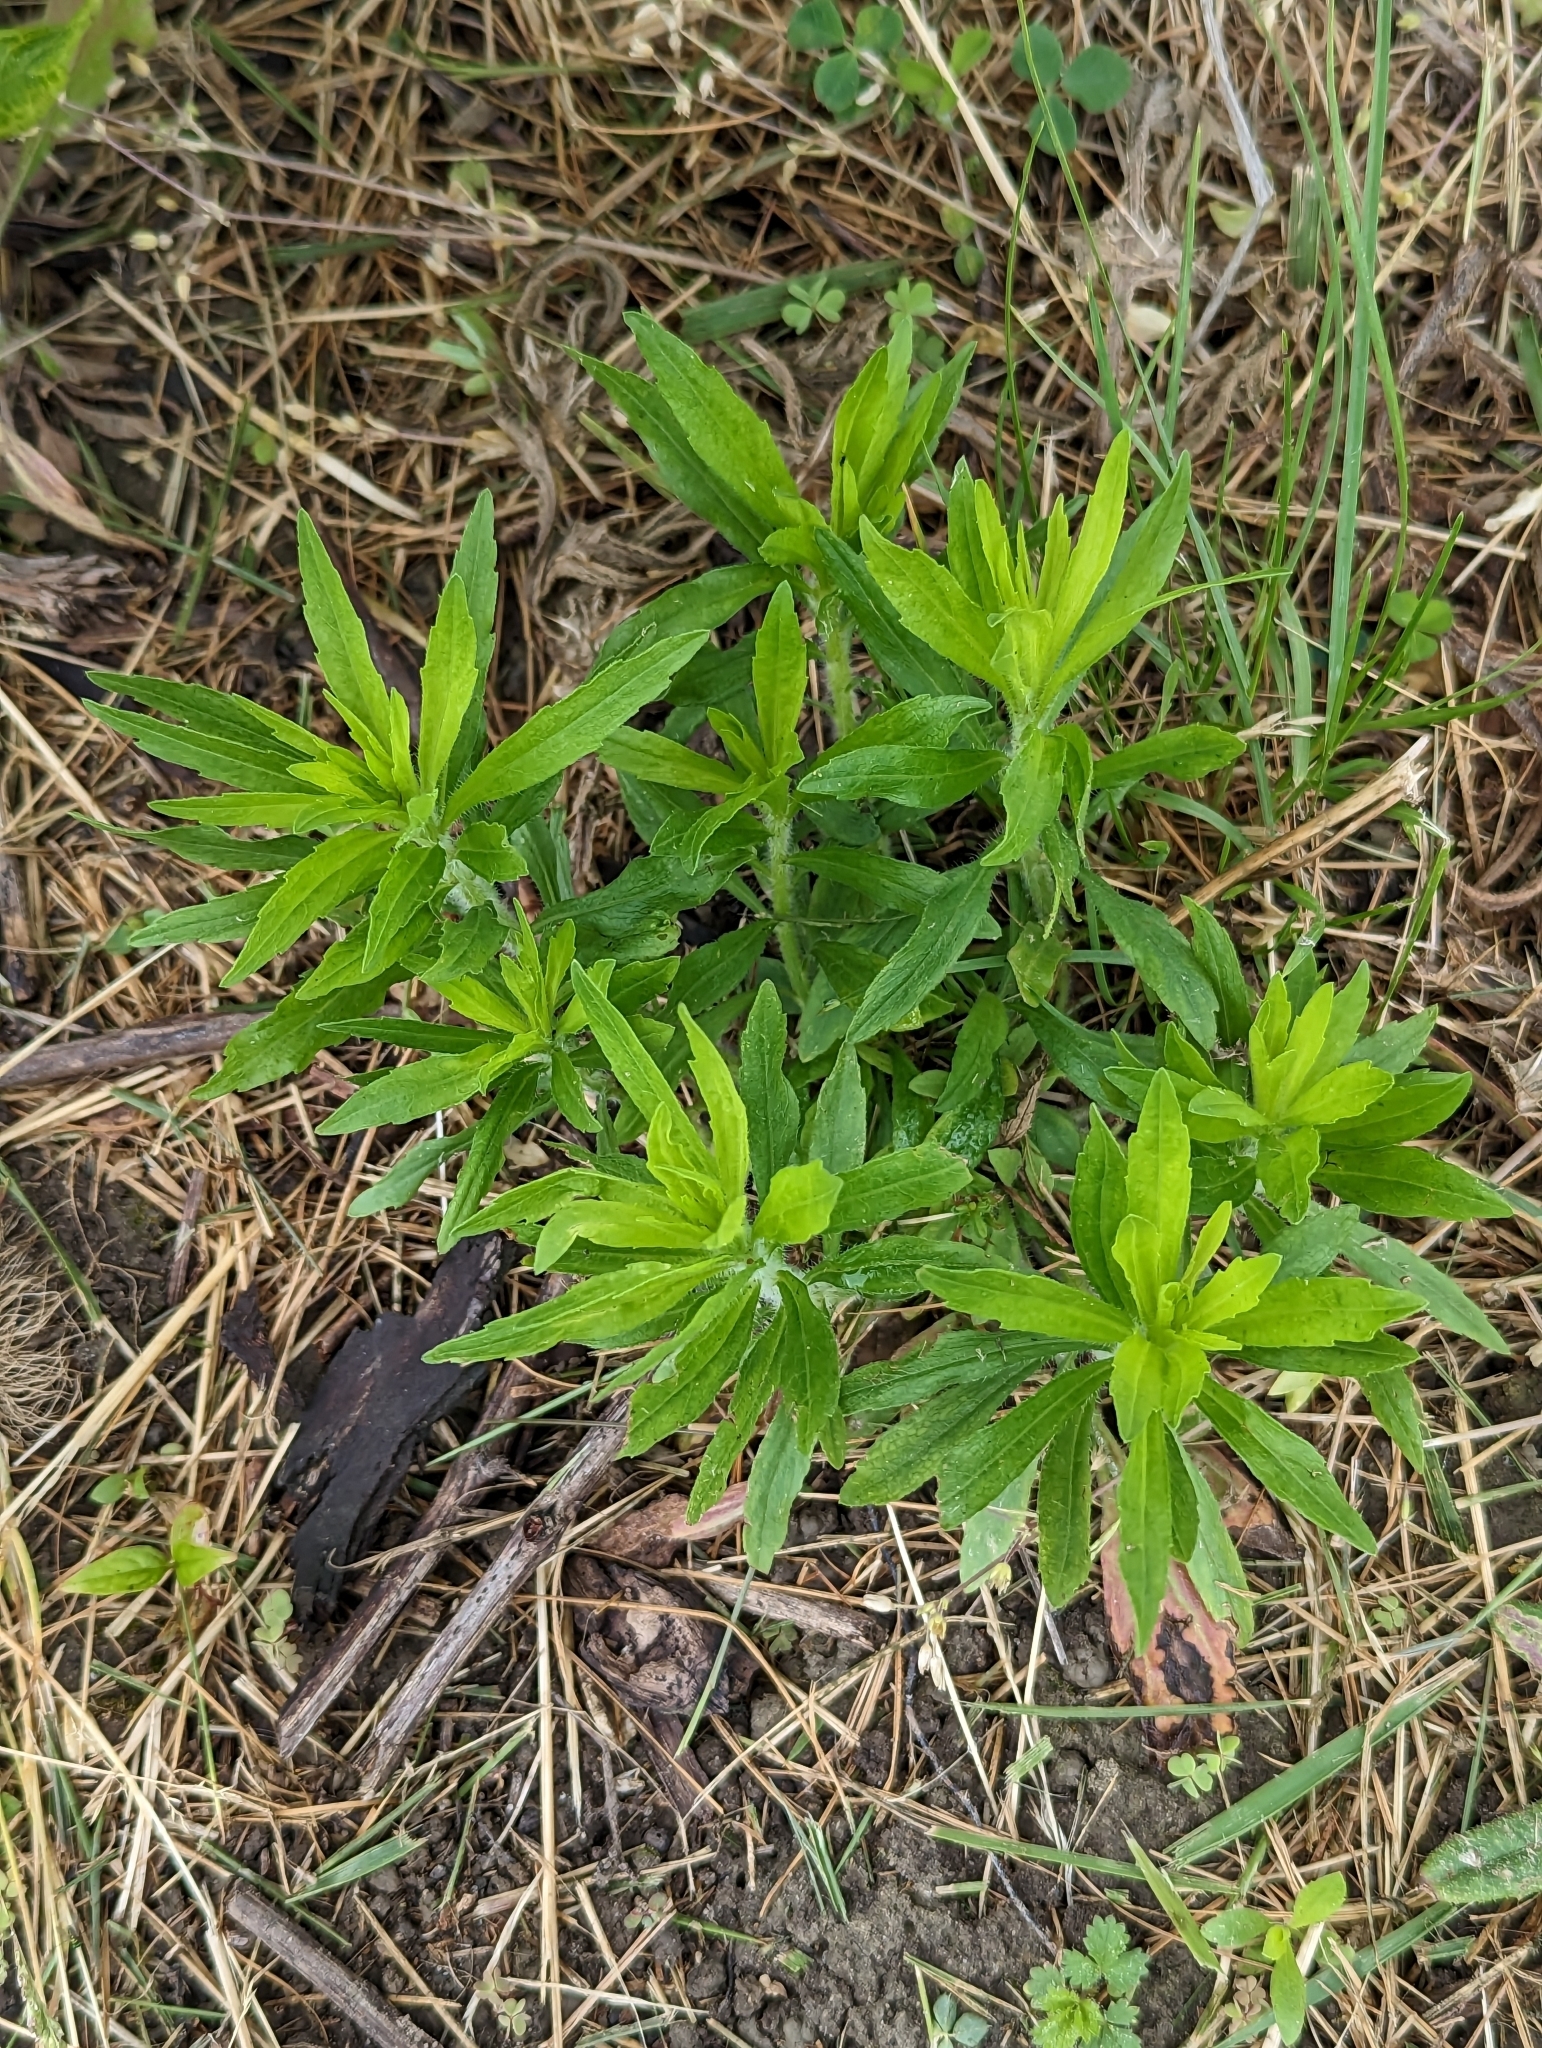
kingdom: Plantae
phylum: Tracheophyta
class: Magnoliopsida
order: Asterales
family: Asteraceae
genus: Erigeron
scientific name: Erigeron canadensis
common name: Canadian fleabane
